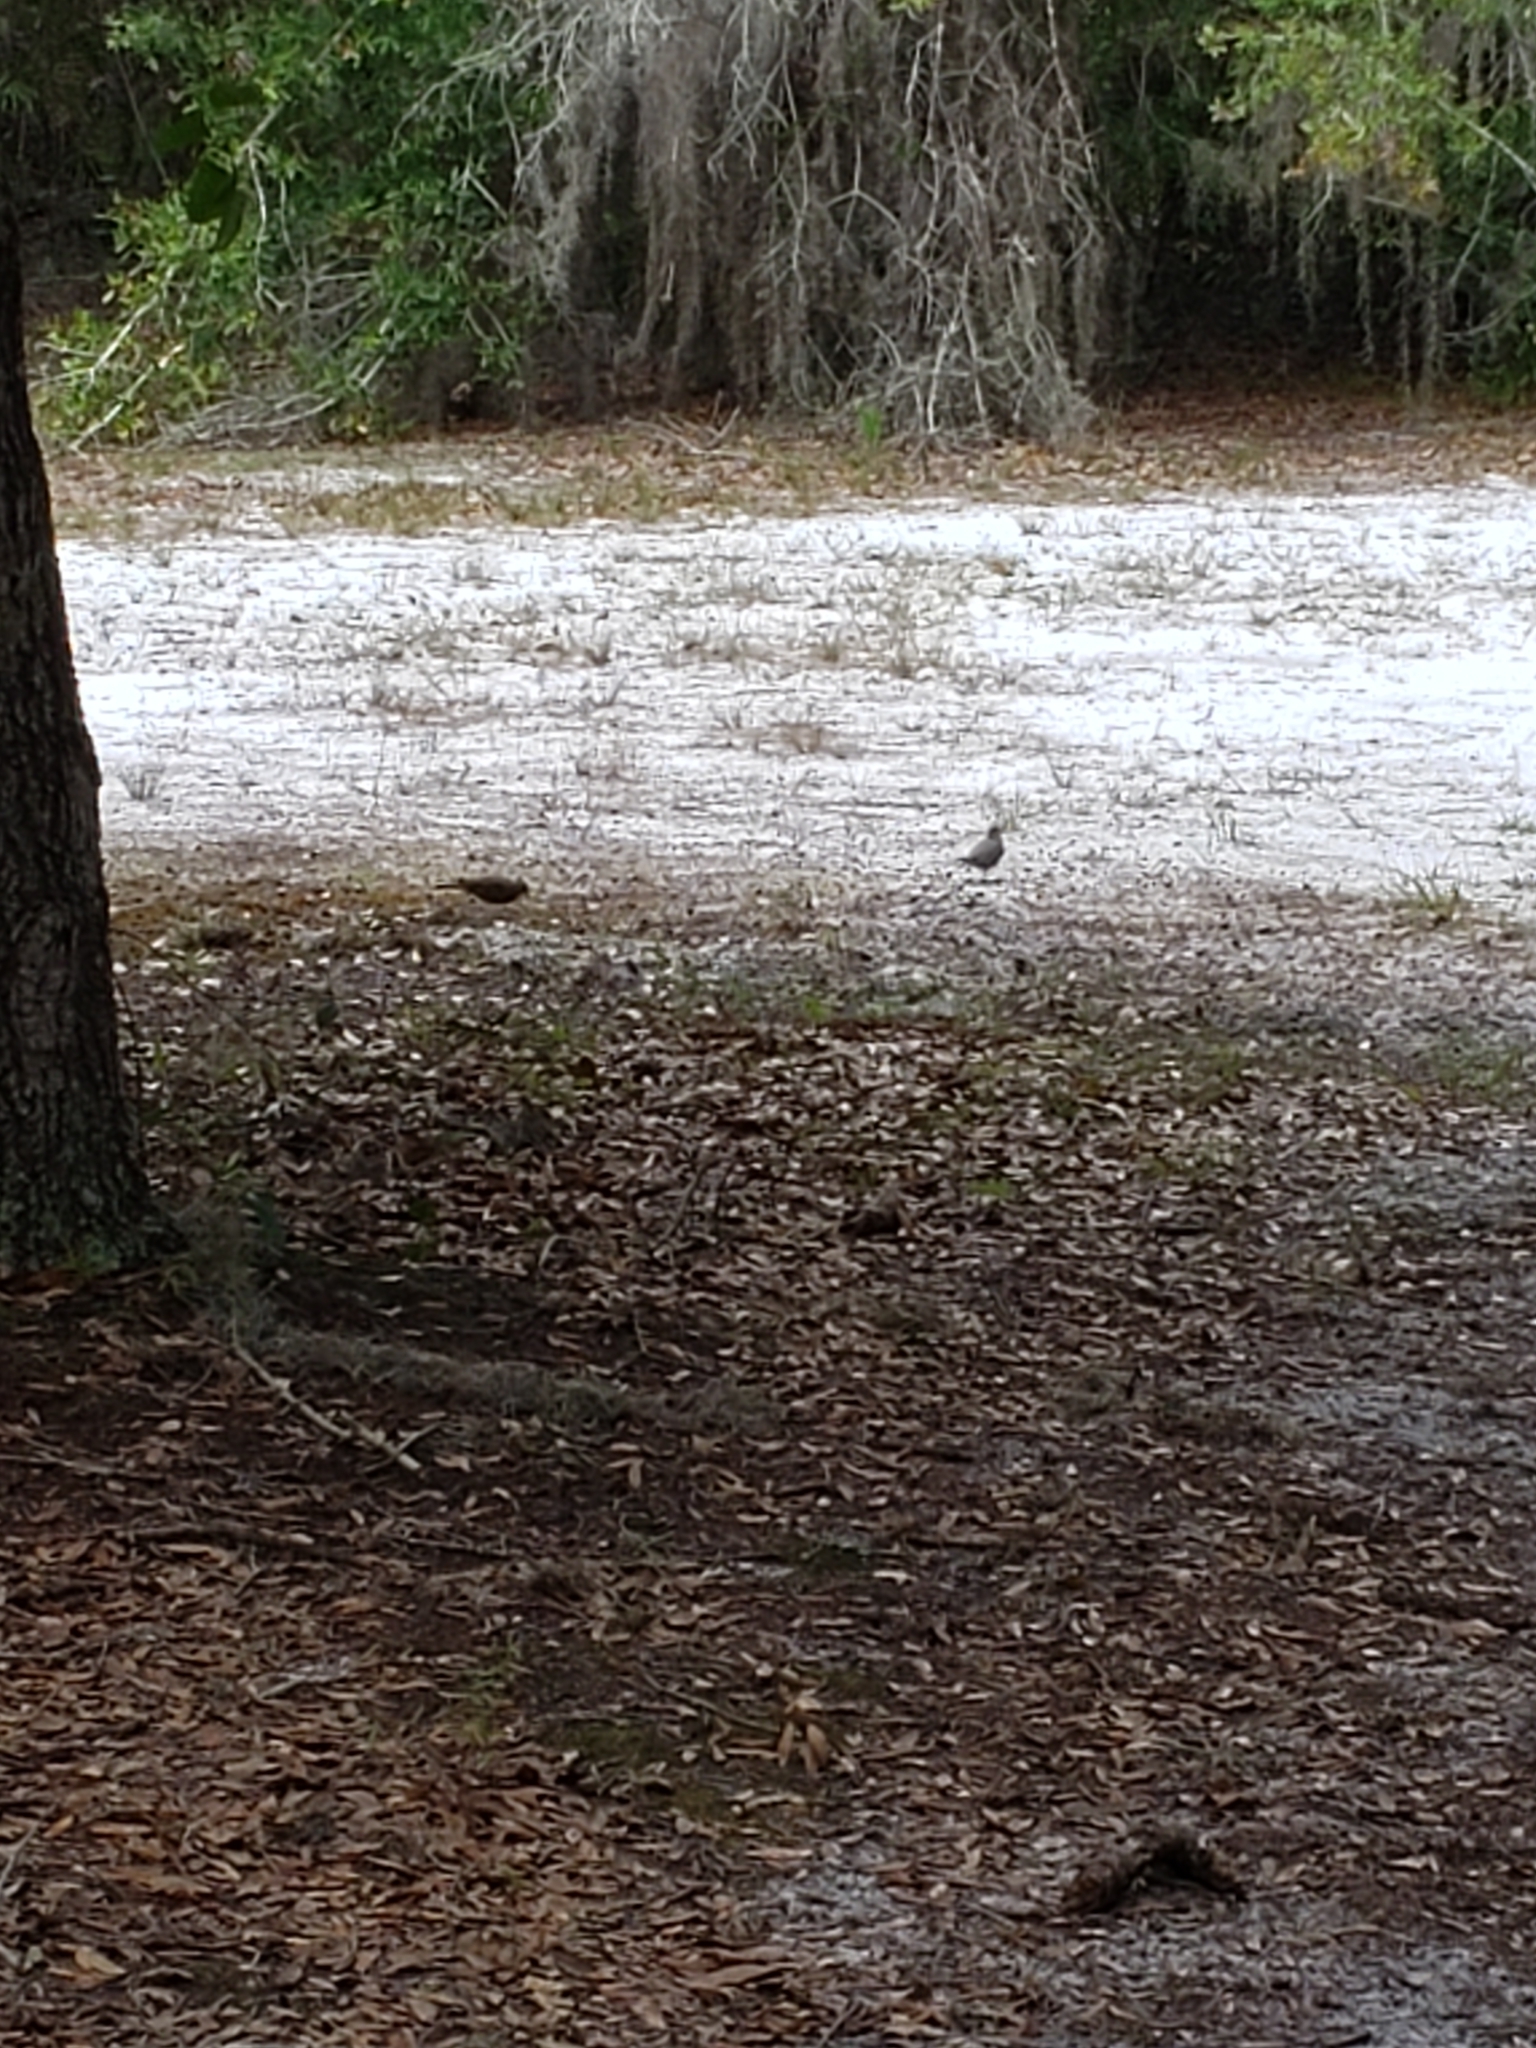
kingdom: Animalia
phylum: Chordata
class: Aves
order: Columbiformes
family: Columbidae
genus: Columbina
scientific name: Columbina passerina
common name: Common ground-dove
